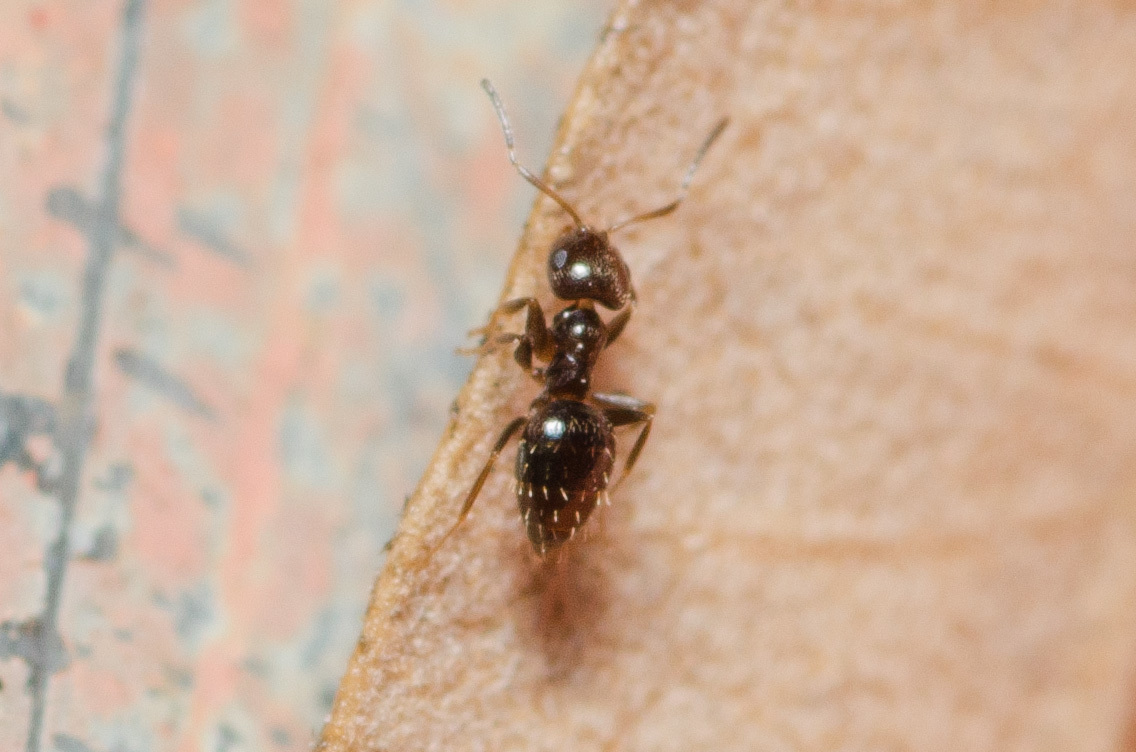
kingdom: Animalia
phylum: Arthropoda
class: Insecta
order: Hymenoptera
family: Formicidae
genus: Brachymyrmex
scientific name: Brachymyrmex patagonicus
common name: Dark rover ant
